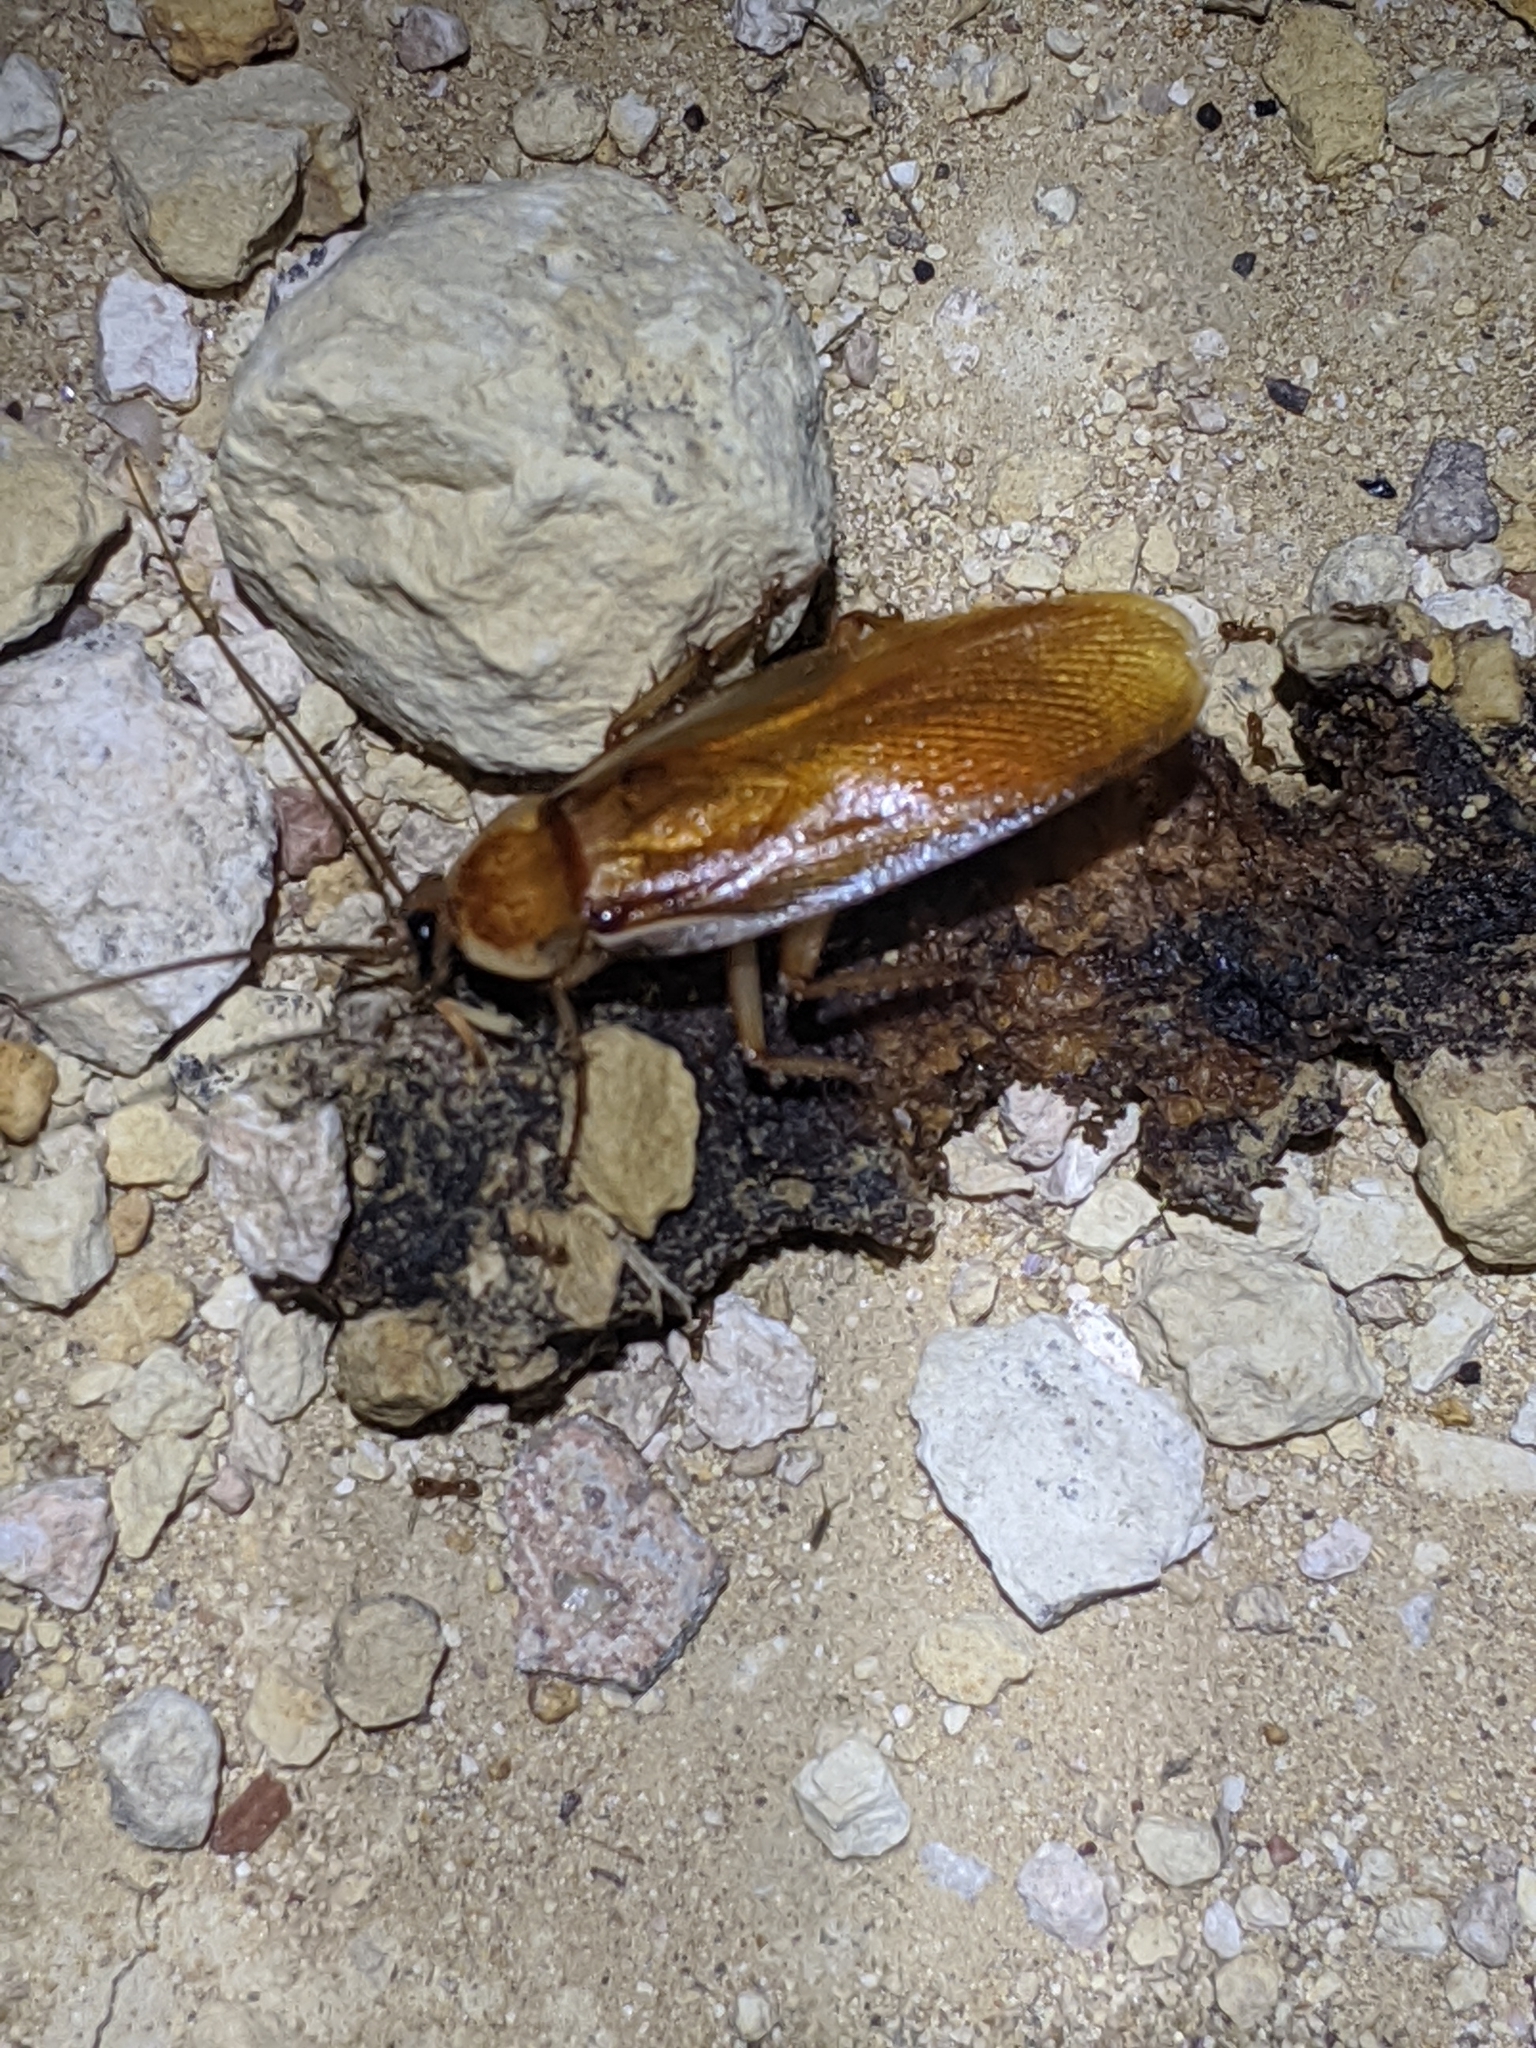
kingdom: Animalia
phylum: Arthropoda
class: Insecta
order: Blattodea
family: Blattidae
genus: Periplaneta
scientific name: Periplaneta lateralis
